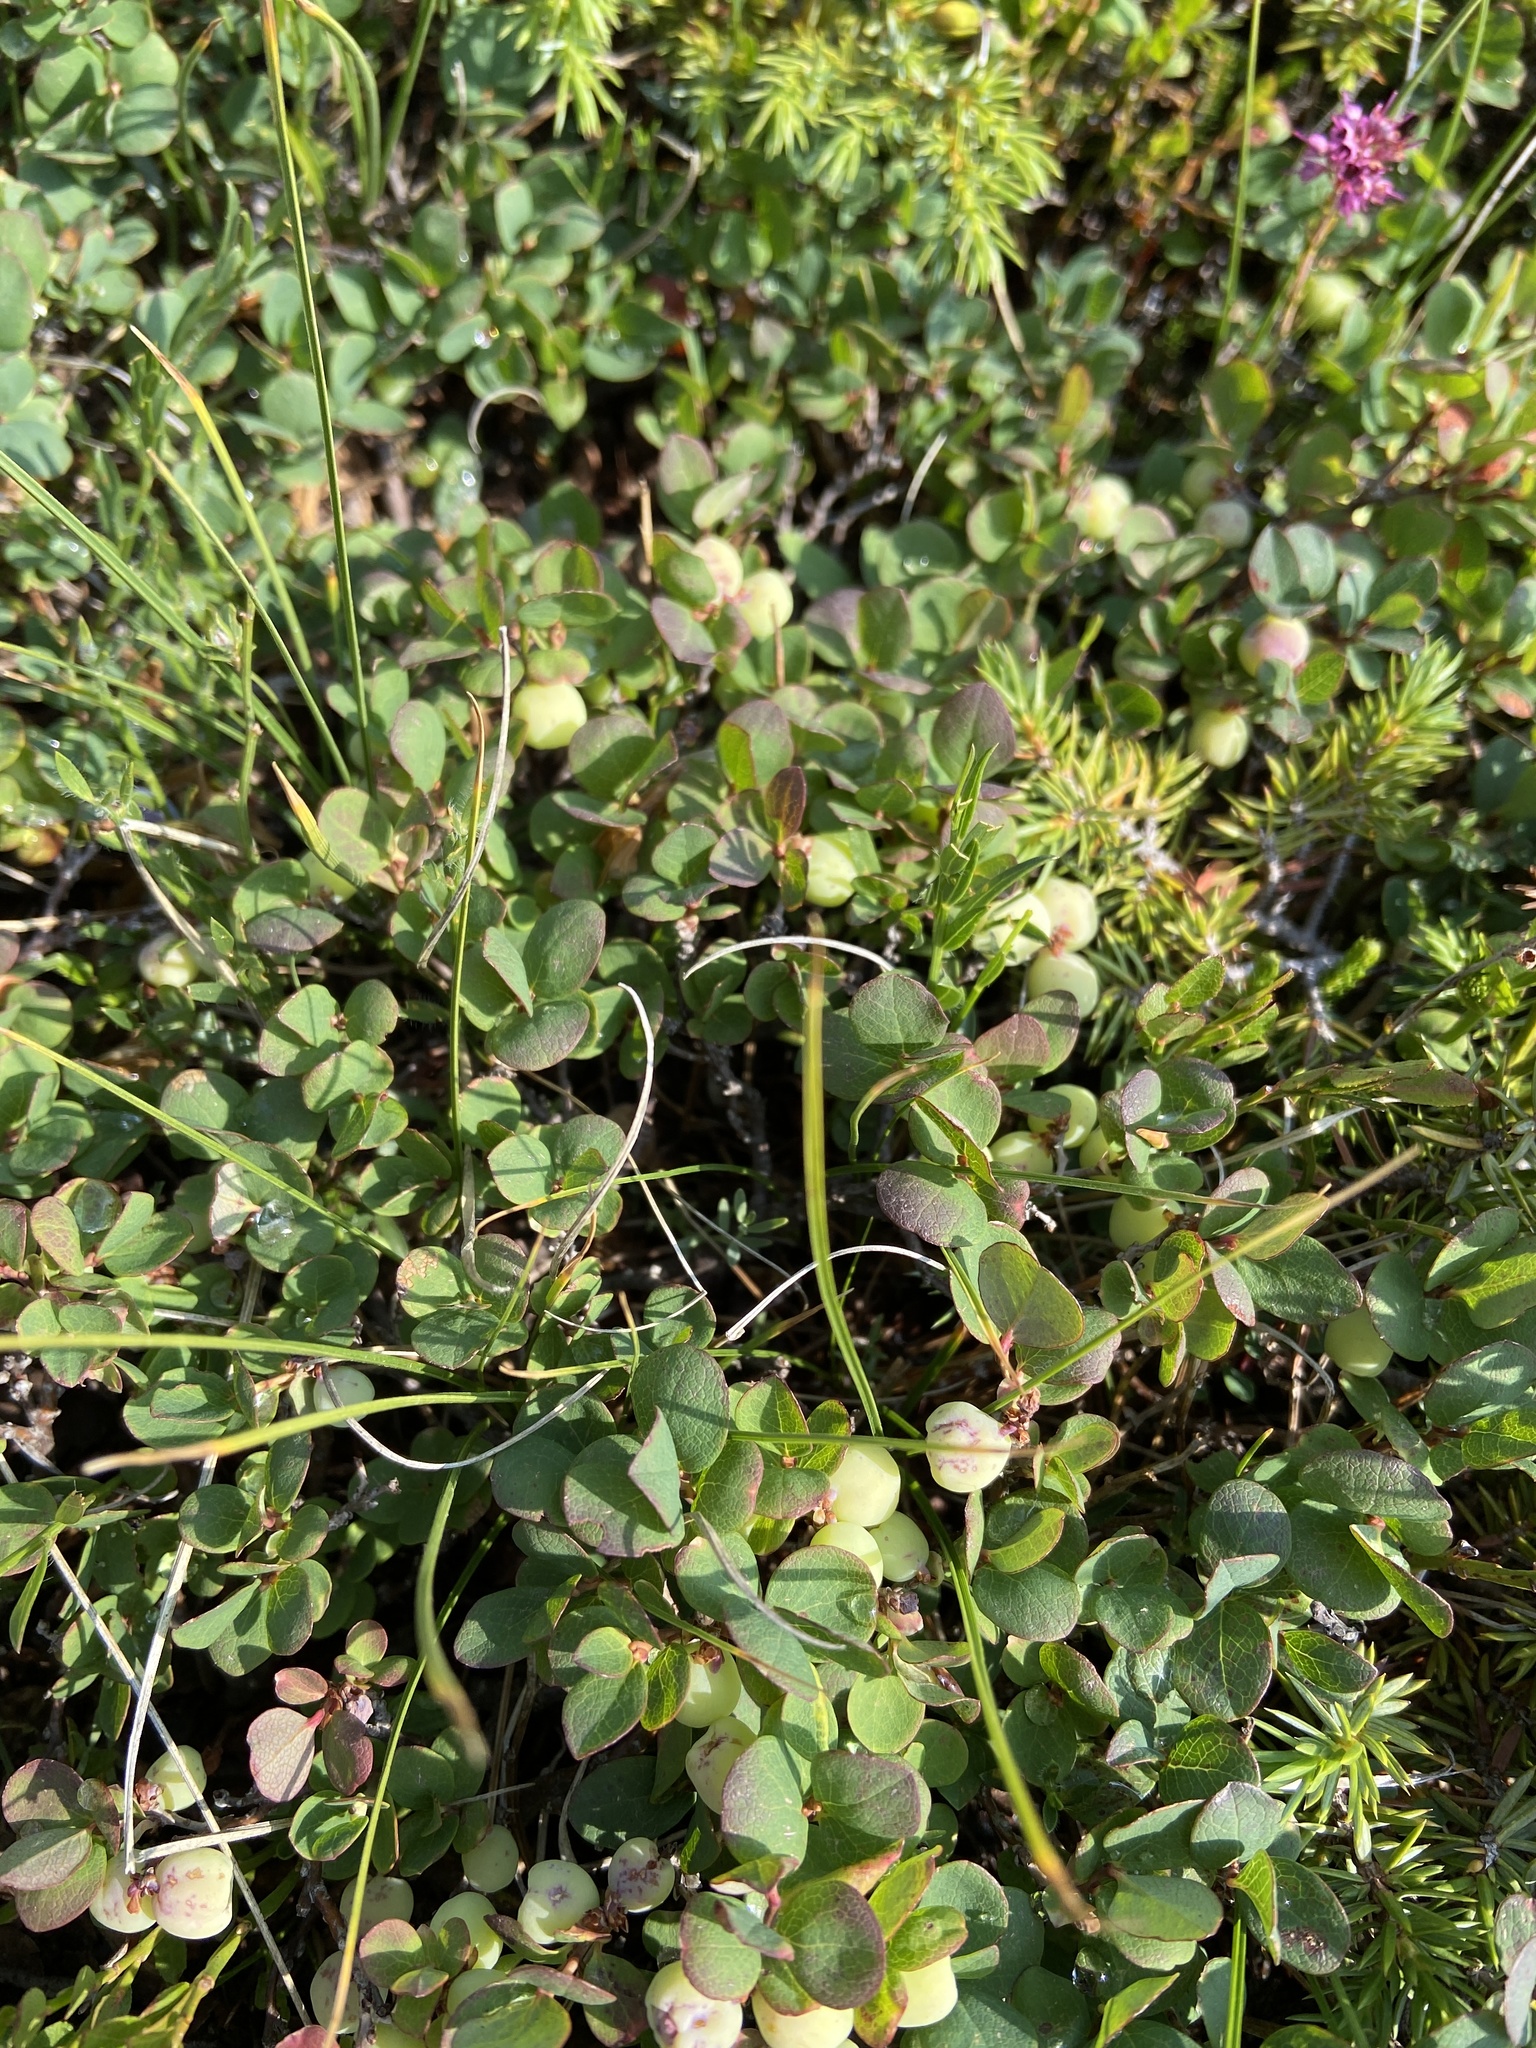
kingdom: Plantae
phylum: Tracheophyta
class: Magnoliopsida
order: Ericales
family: Ericaceae
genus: Vaccinium
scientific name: Vaccinium uliginosum
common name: Bog bilberry
